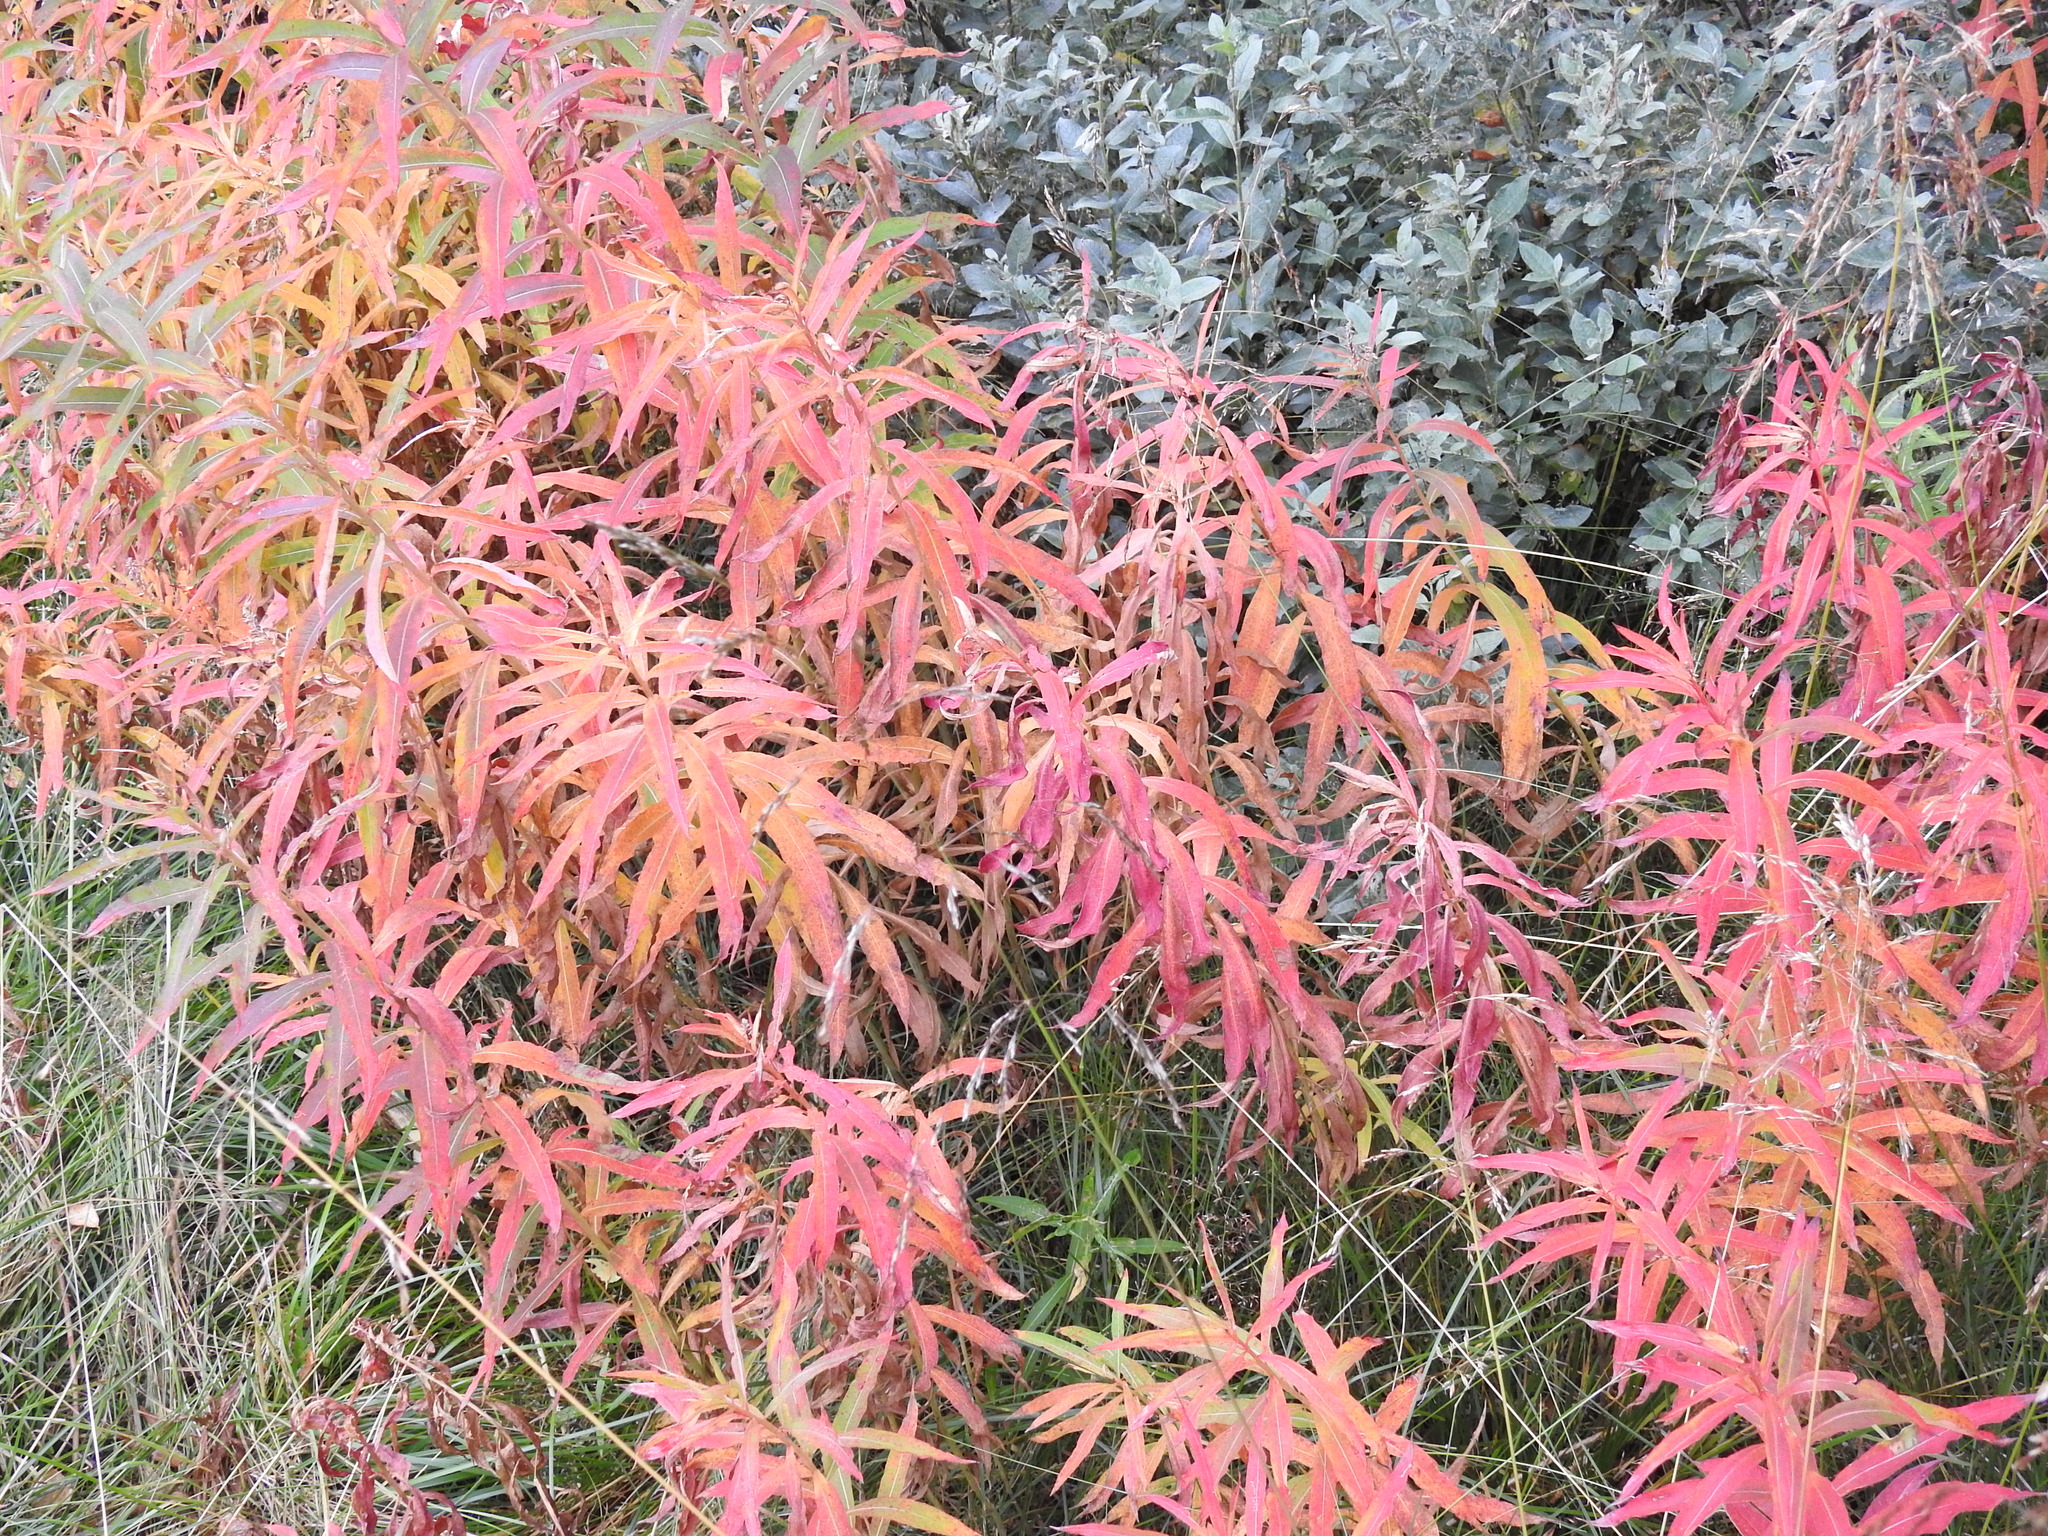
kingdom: Plantae
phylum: Tracheophyta
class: Magnoliopsida
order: Myrtales
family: Onagraceae
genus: Chamaenerion
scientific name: Chamaenerion angustifolium
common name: Fireweed
